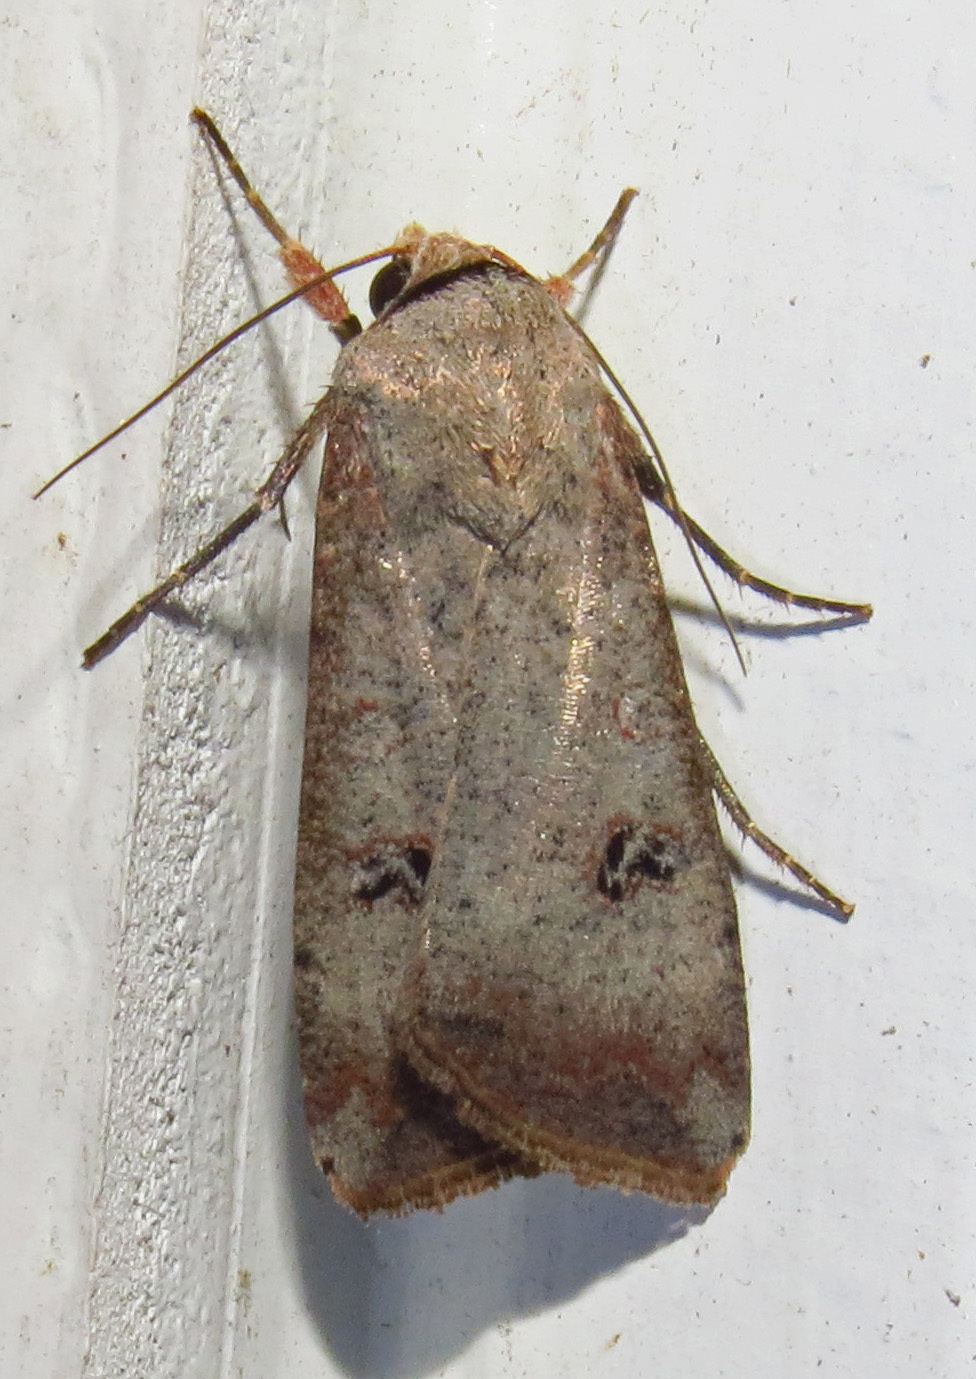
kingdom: Animalia
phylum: Arthropoda
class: Insecta
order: Lepidoptera
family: Noctuidae
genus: Anicla
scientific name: Anicla infecta
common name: Green cutworm
